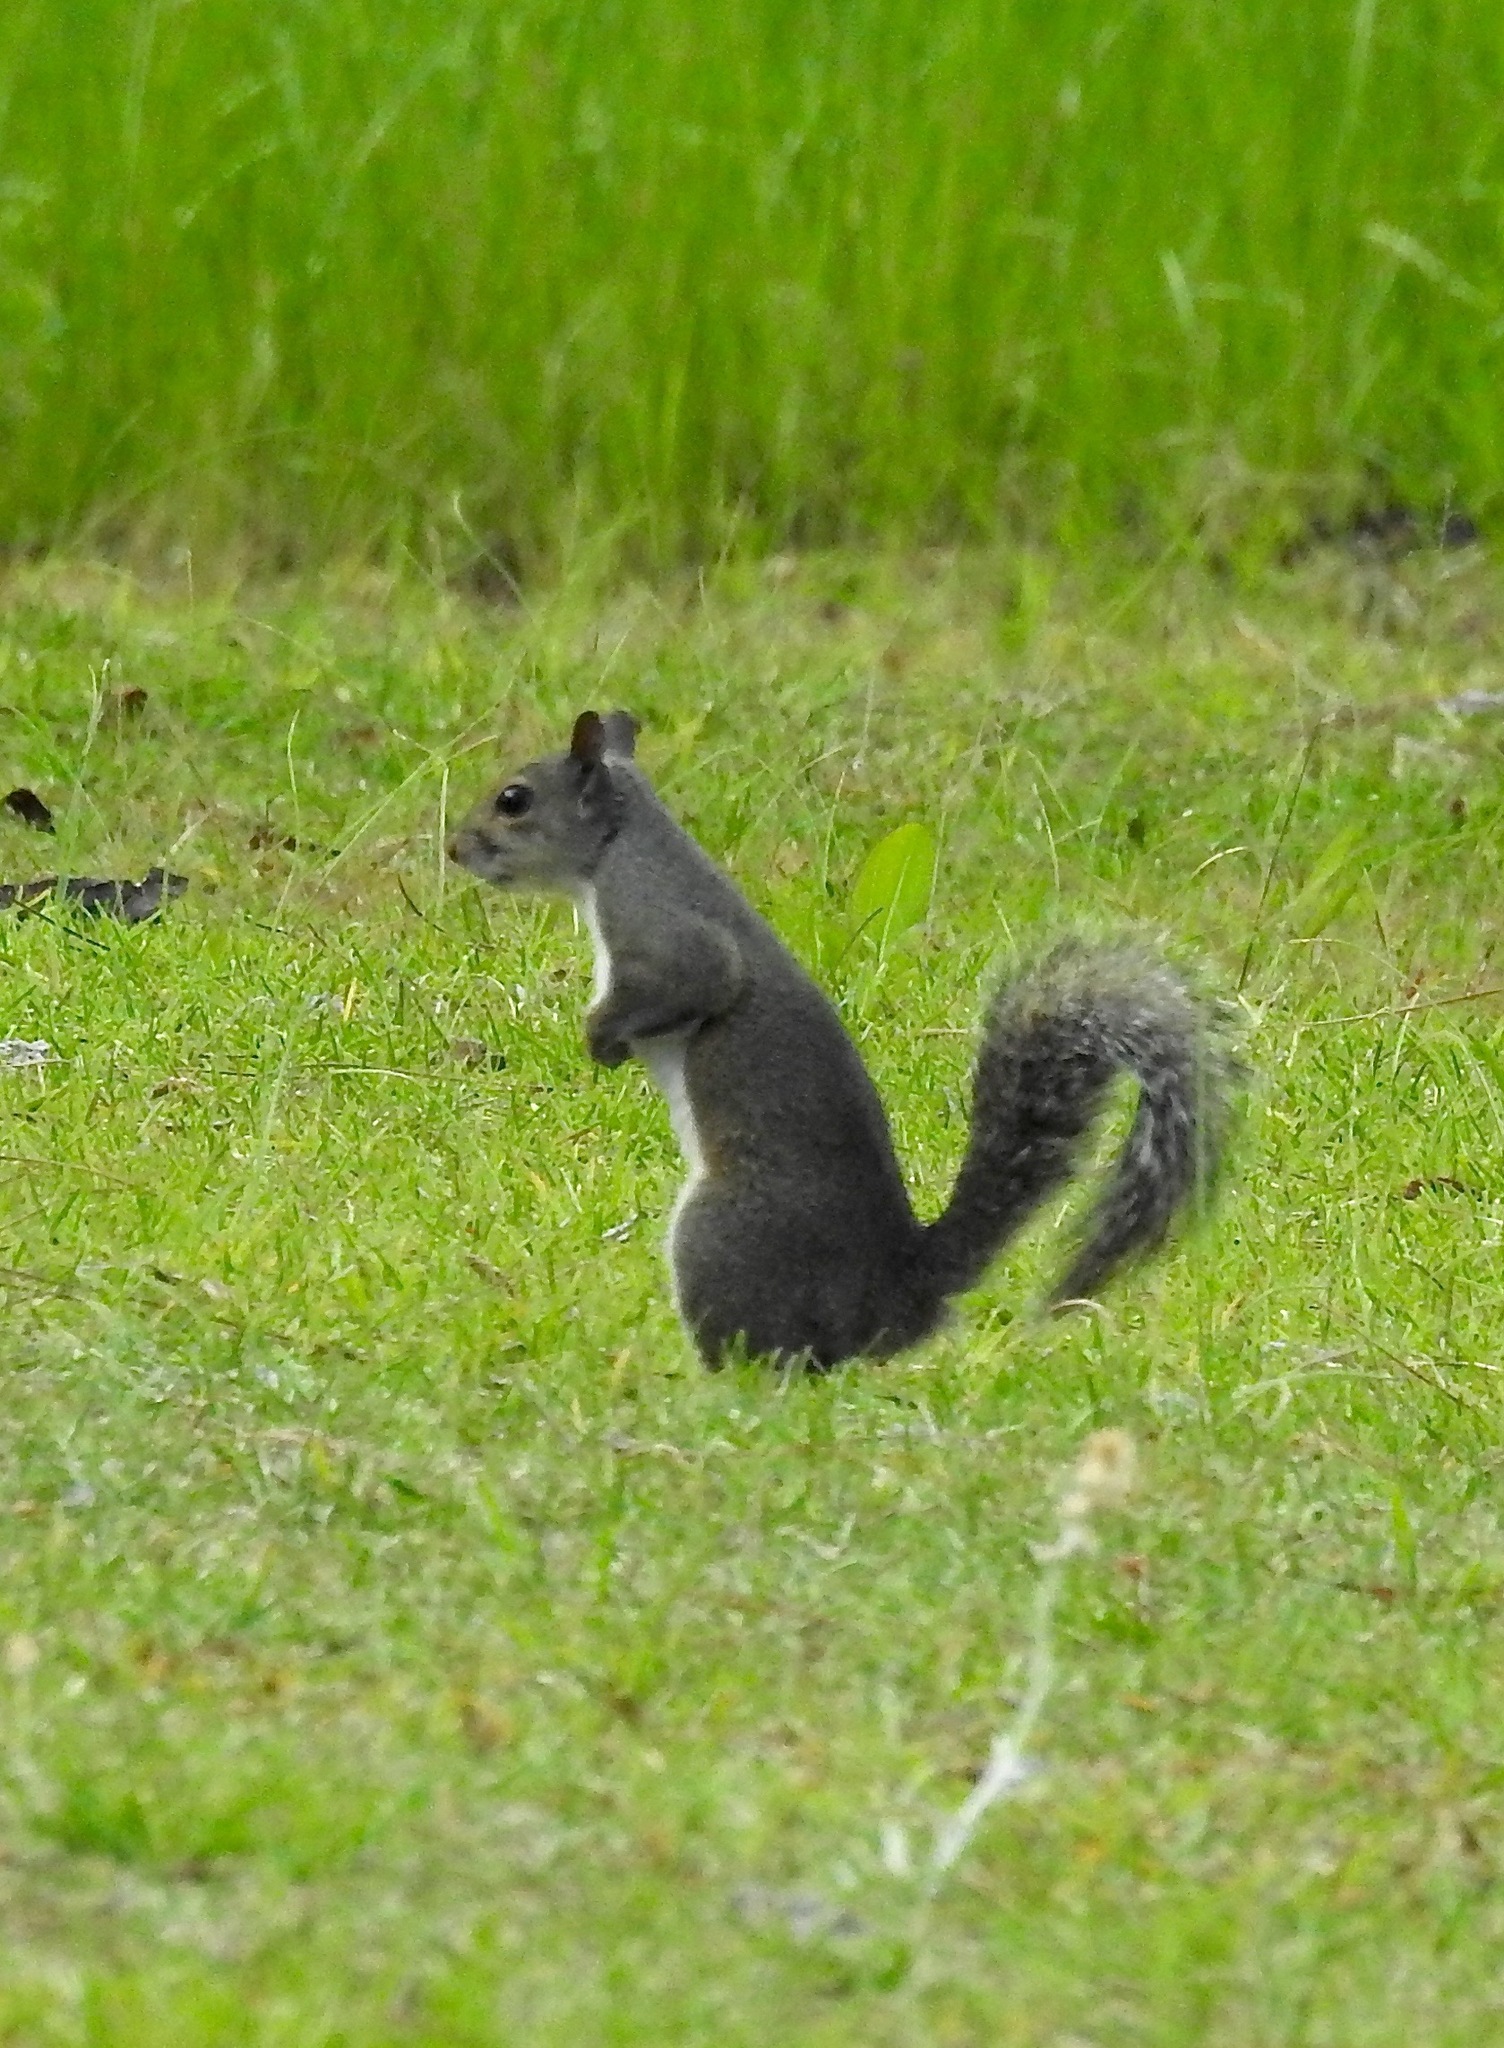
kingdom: Animalia
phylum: Chordata
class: Mammalia
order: Rodentia
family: Sciuridae
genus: Sciurus
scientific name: Sciurus carolinensis
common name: Eastern gray squirrel
